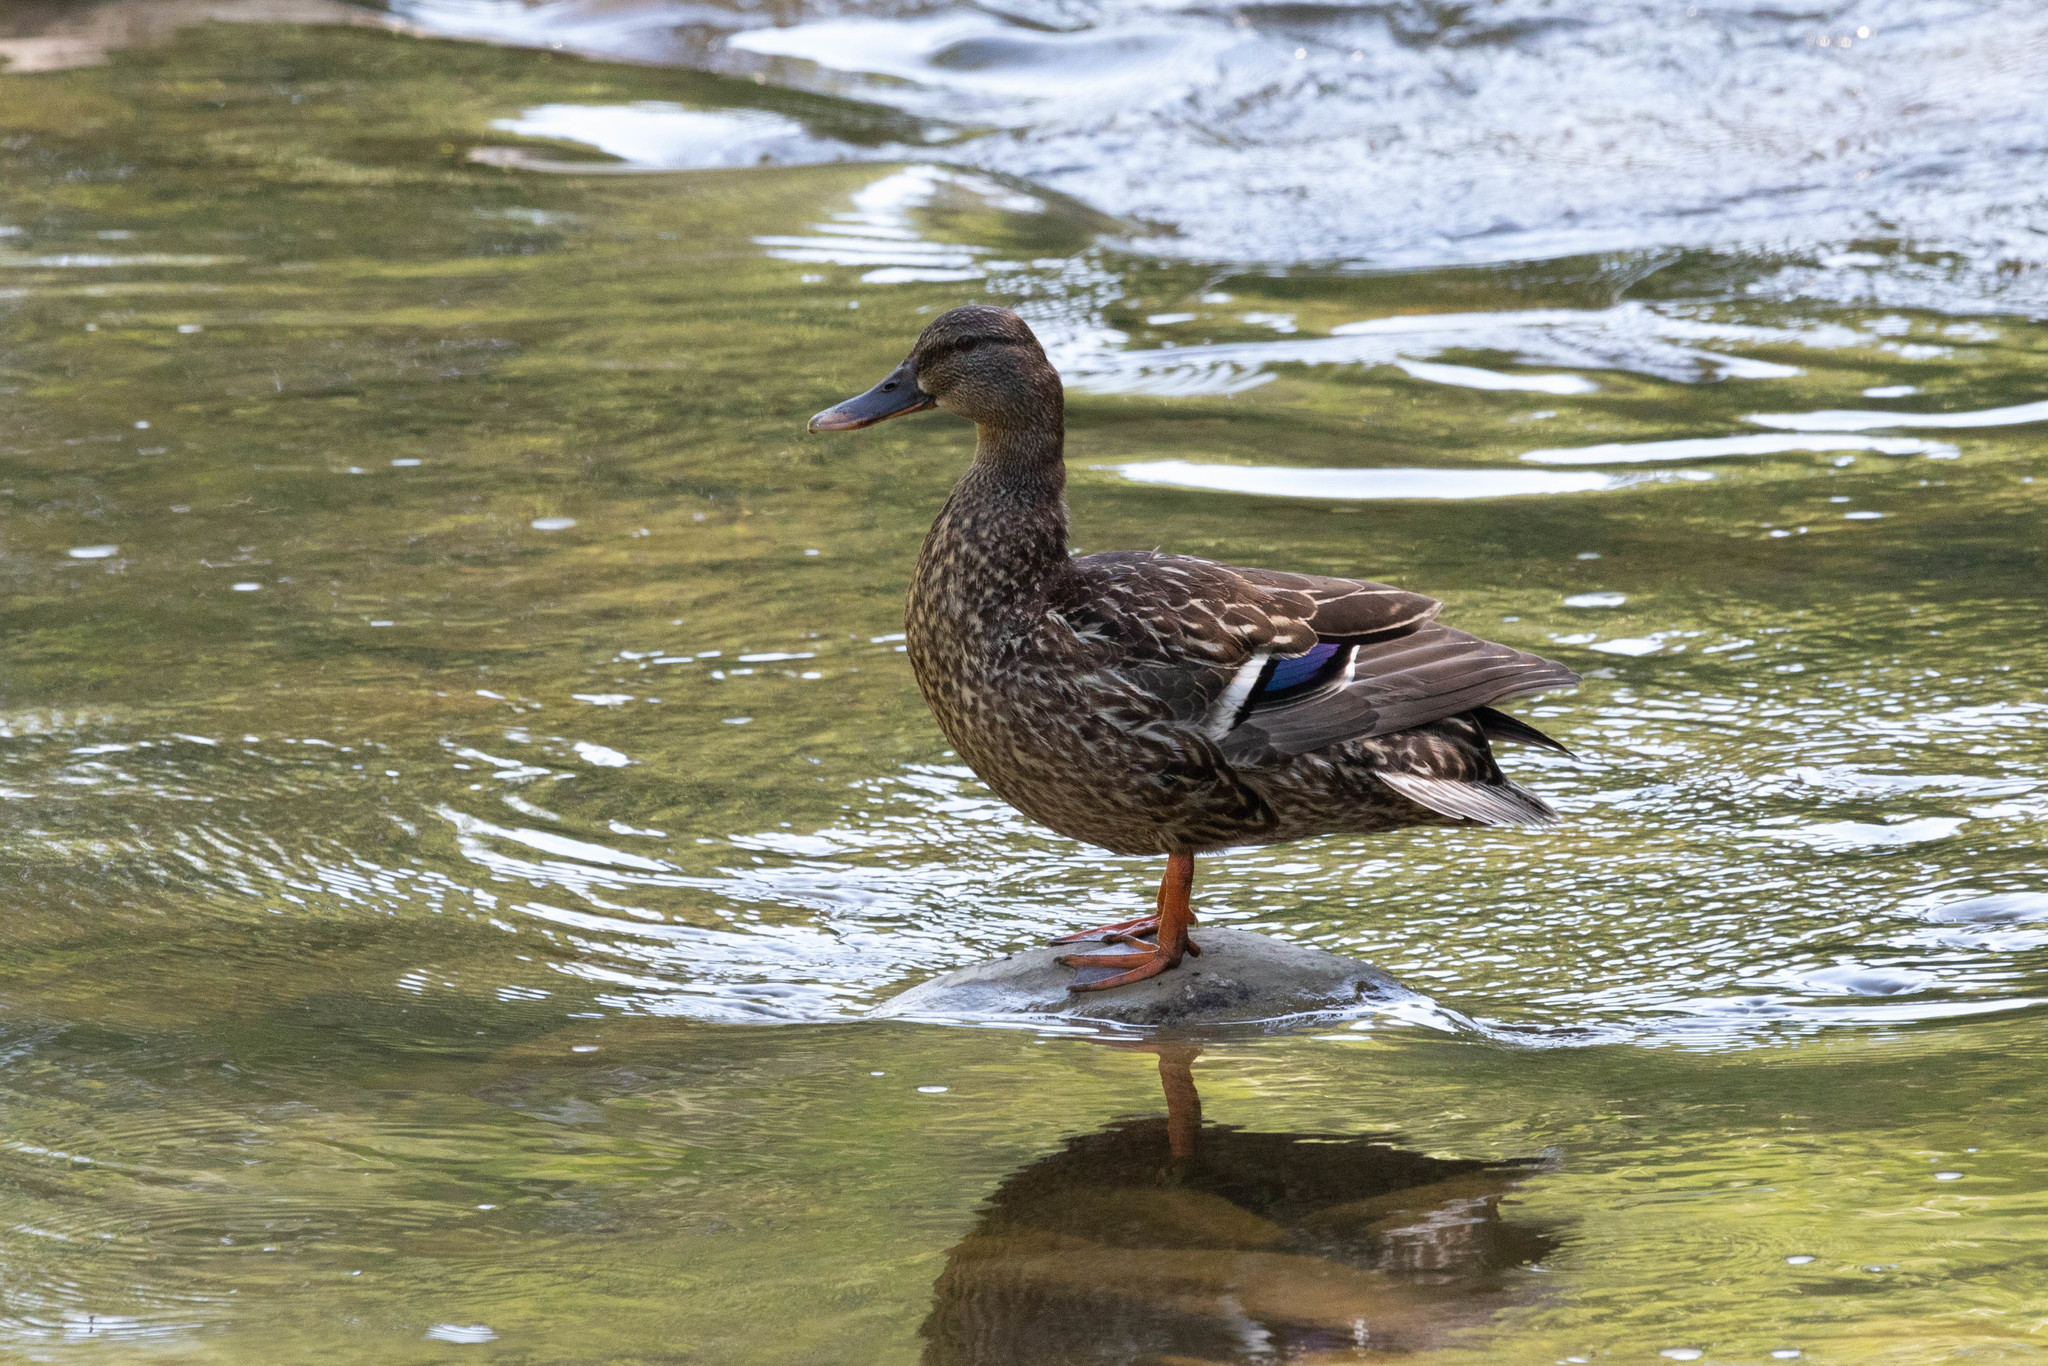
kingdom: Animalia
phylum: Chordata
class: Aves
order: Anseriformes
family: Anatidae
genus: Anas
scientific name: Anas platyrhynchos
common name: Mallard
